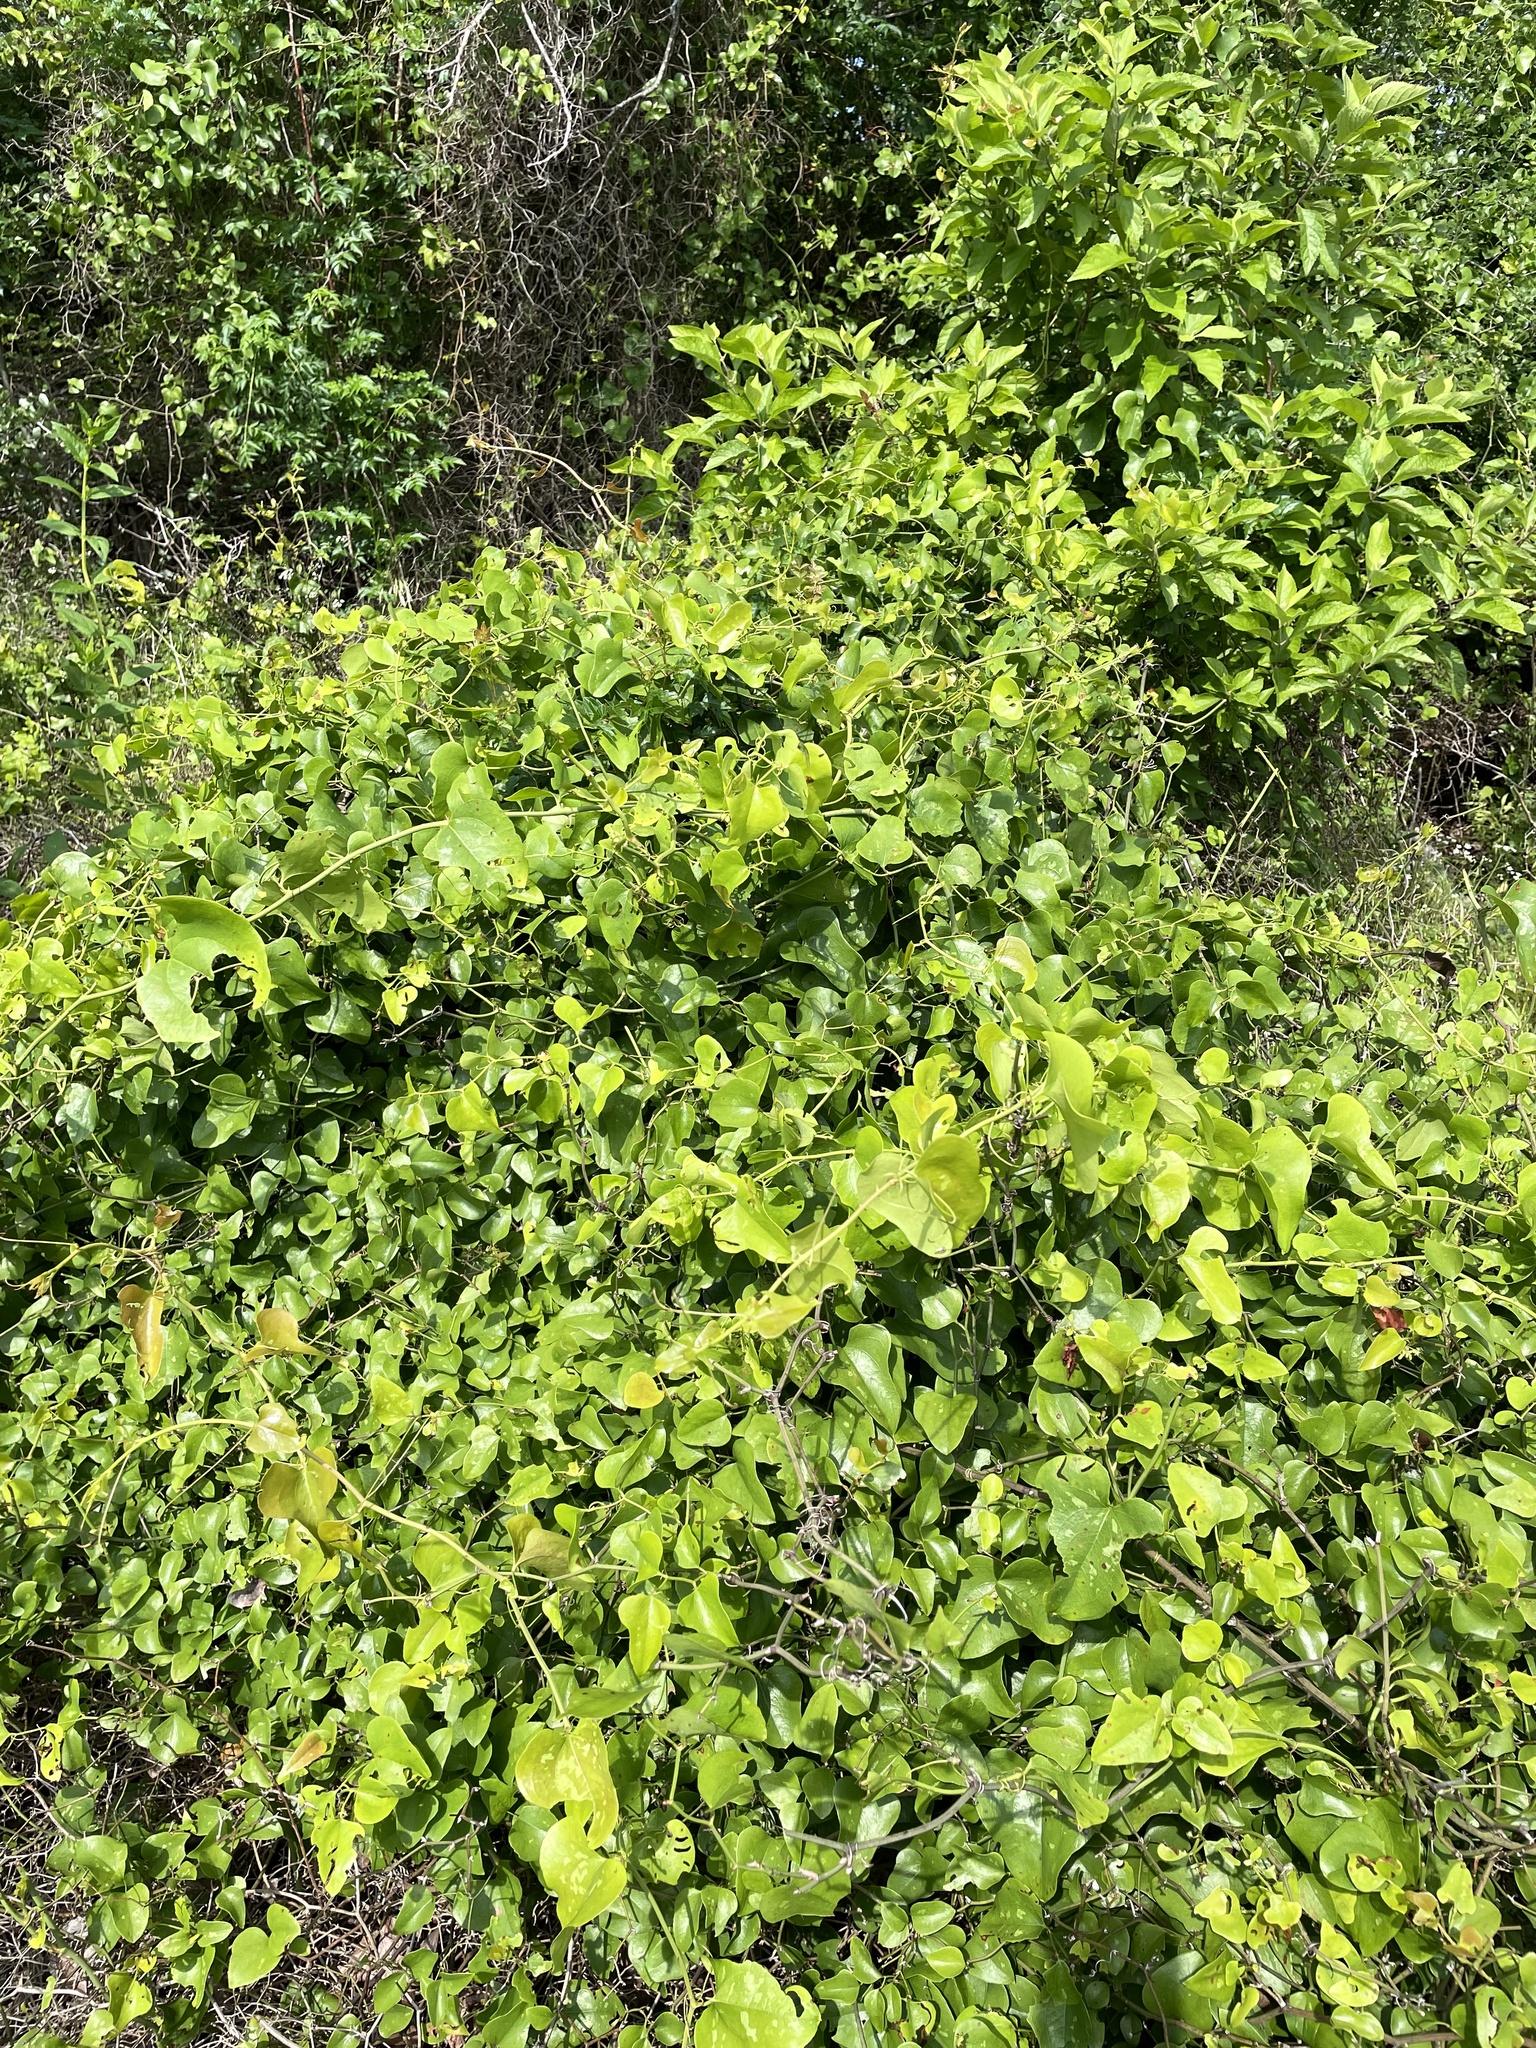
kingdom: Plantae
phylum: Tracheophyta
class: Liliopsida
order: Liliales
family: Smilacaceae
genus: Smilax
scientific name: Smilax bona-nox
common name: Catbrier
